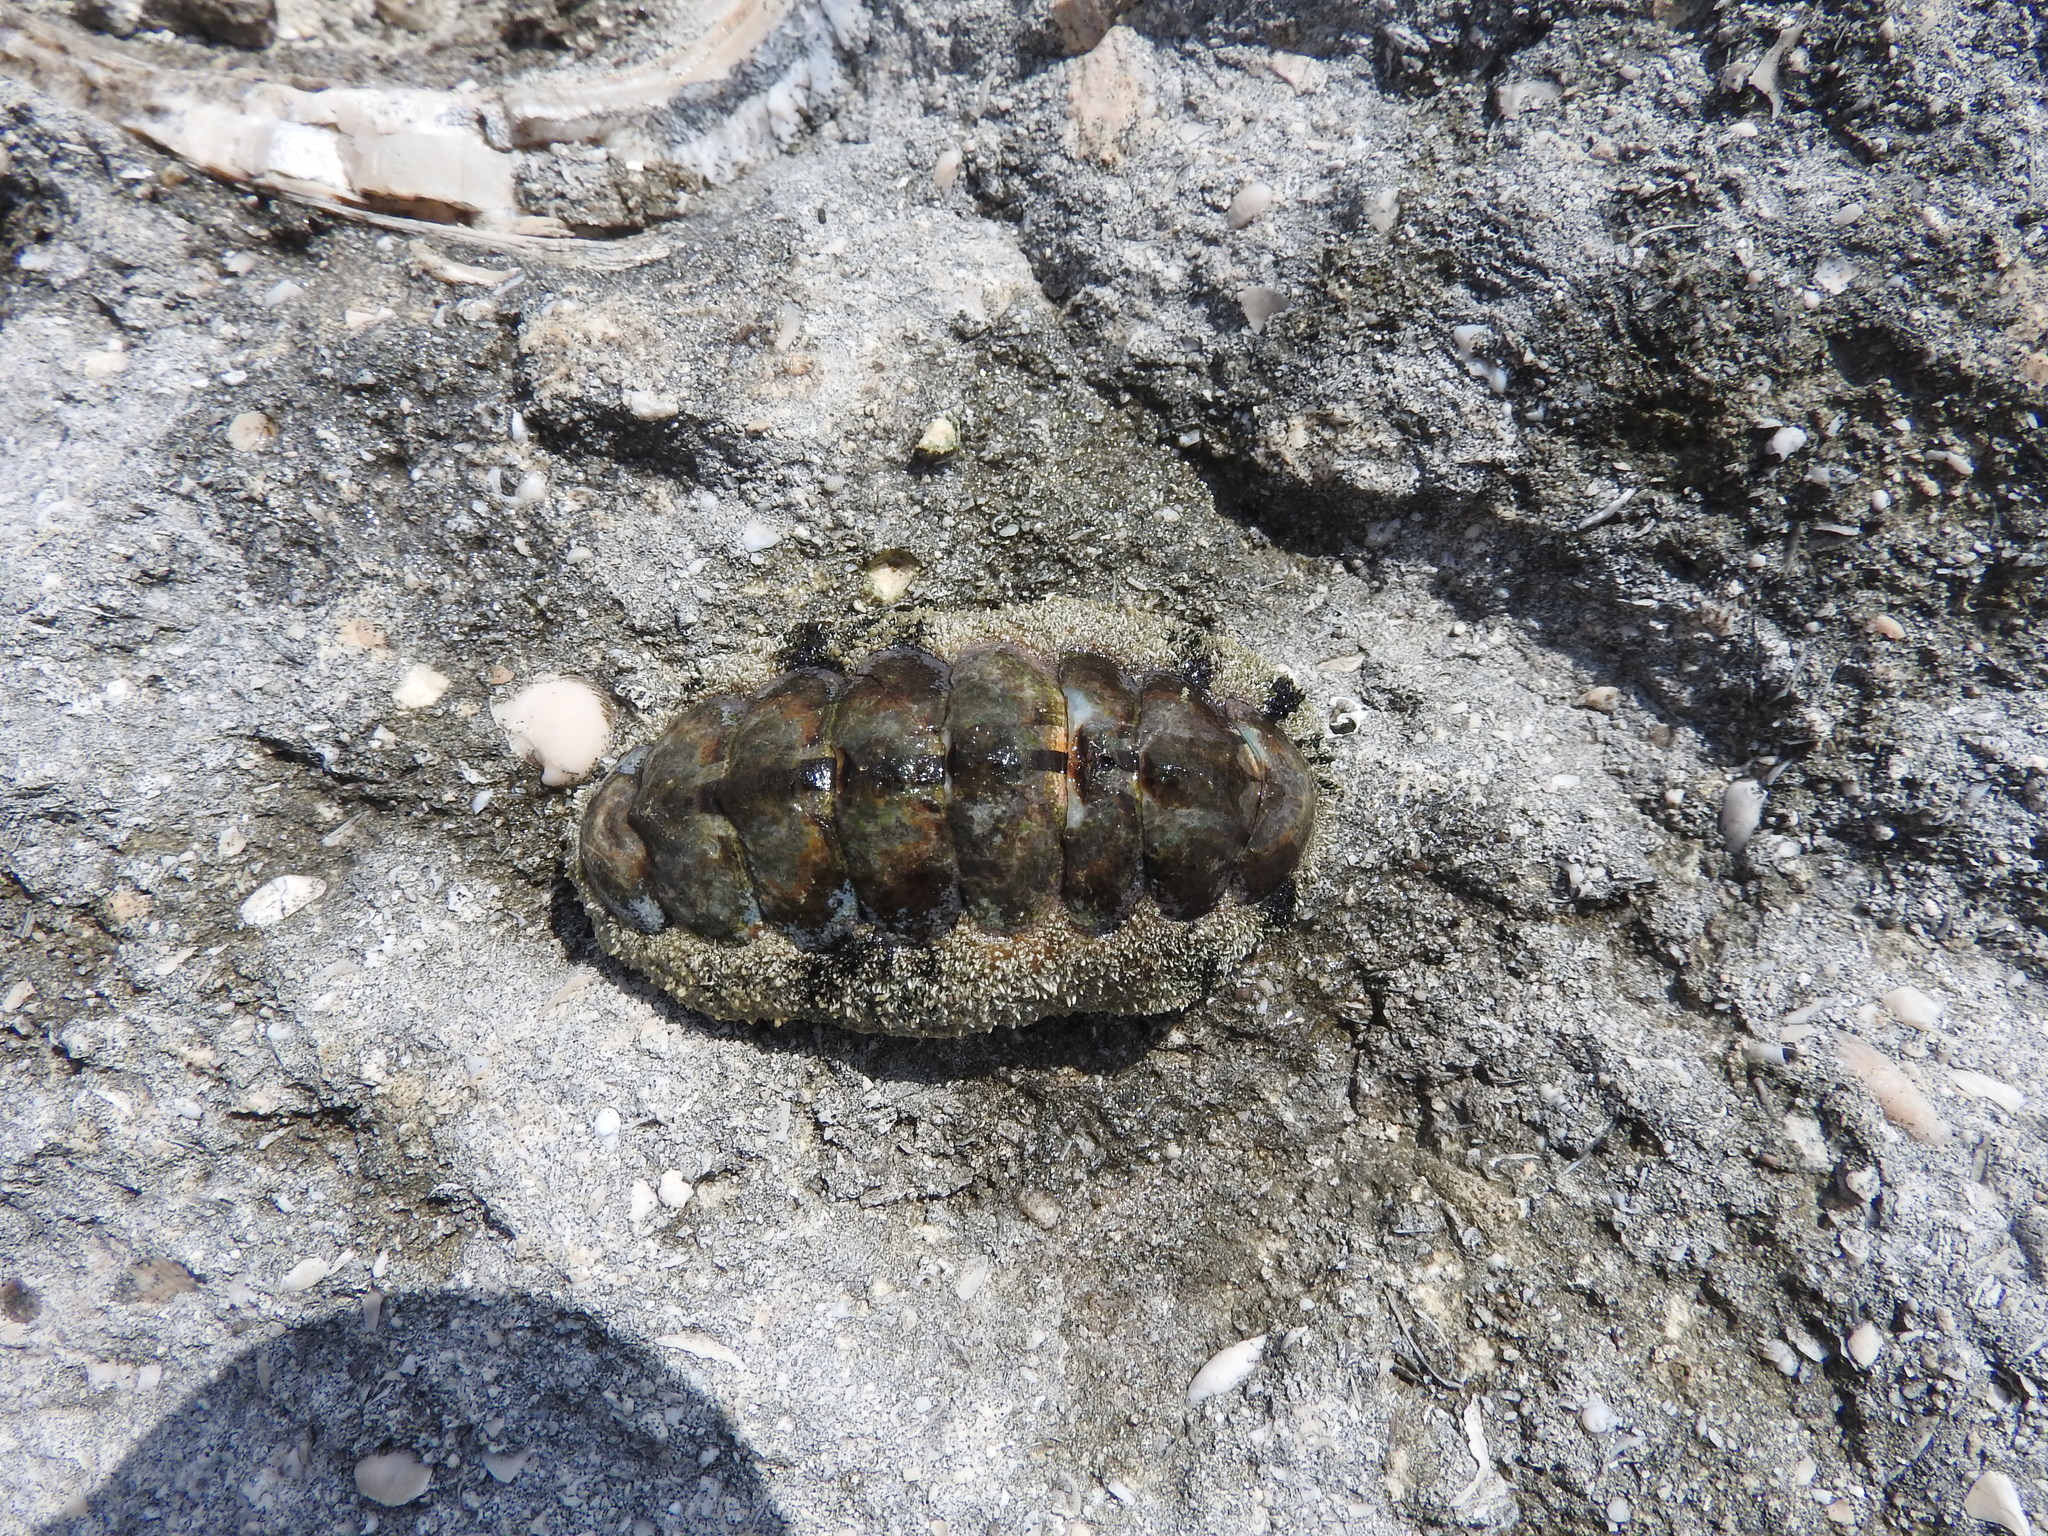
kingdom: Animalia
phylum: Mollusca
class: Polyplacophora
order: Chitonida
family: Chitonidae
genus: Acanthopleura
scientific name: Acanthopleura granulata
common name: West indian fuzzy chiton
